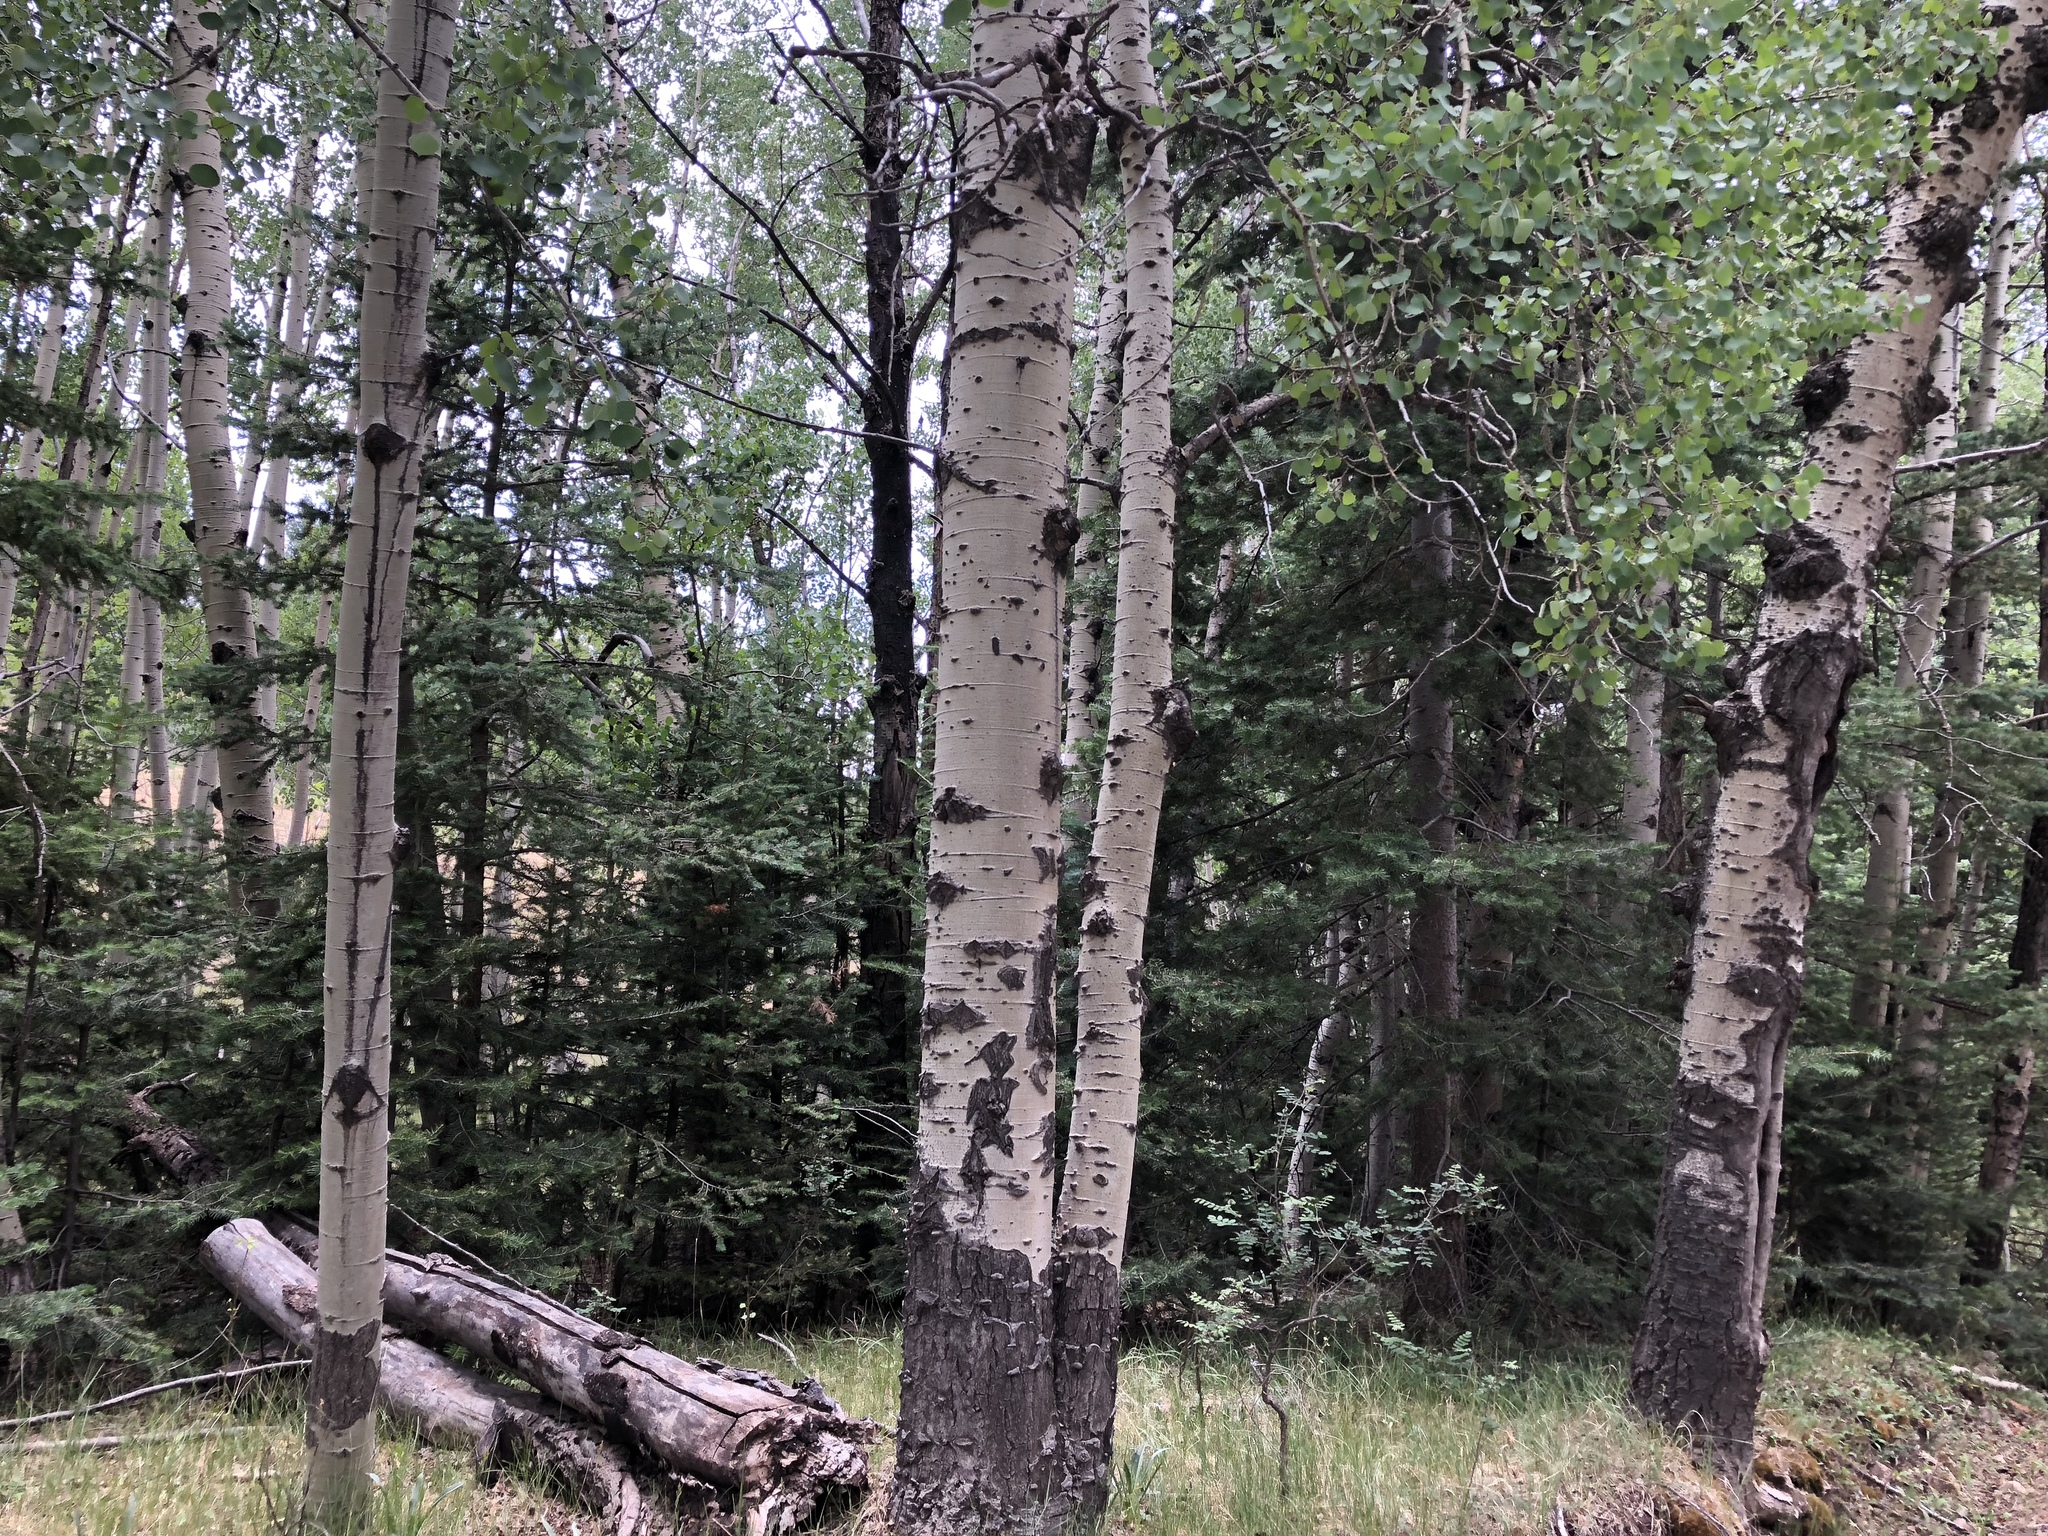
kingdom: Plantae
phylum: Tracheophyta
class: Magnoliopsida
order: Malpighiales
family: Salicaceae
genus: Populus
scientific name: Populus tremuloides
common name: Quaking aspen
